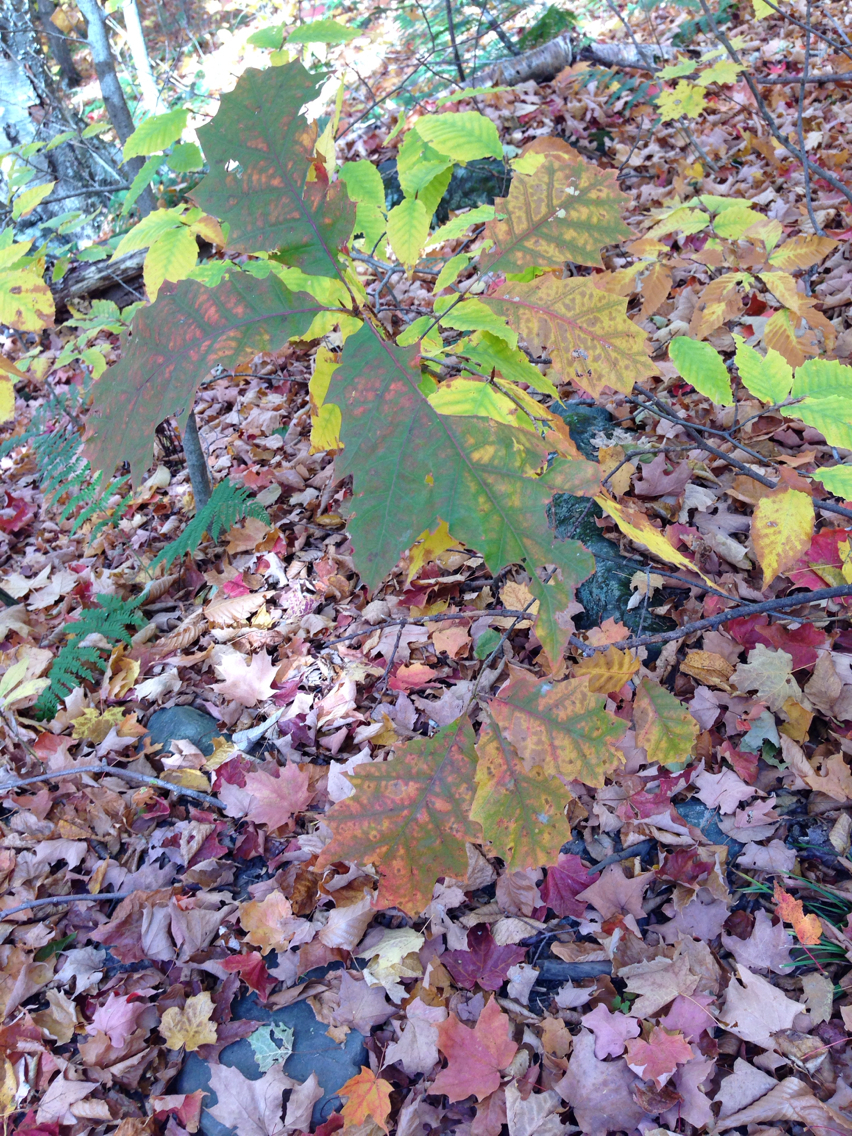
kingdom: Plantae
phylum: Tracheophyta
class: Magnoliopsida
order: Fagales
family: Fagaceae
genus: Quercus
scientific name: Quercus rubra
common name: Red oak
